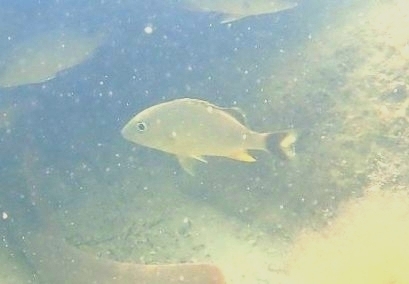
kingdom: Animalia
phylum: Chordata
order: Perciformes
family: Haemulidae
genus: Haemulon
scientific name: Haemulon sciurus
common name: Bluestriped grunt
